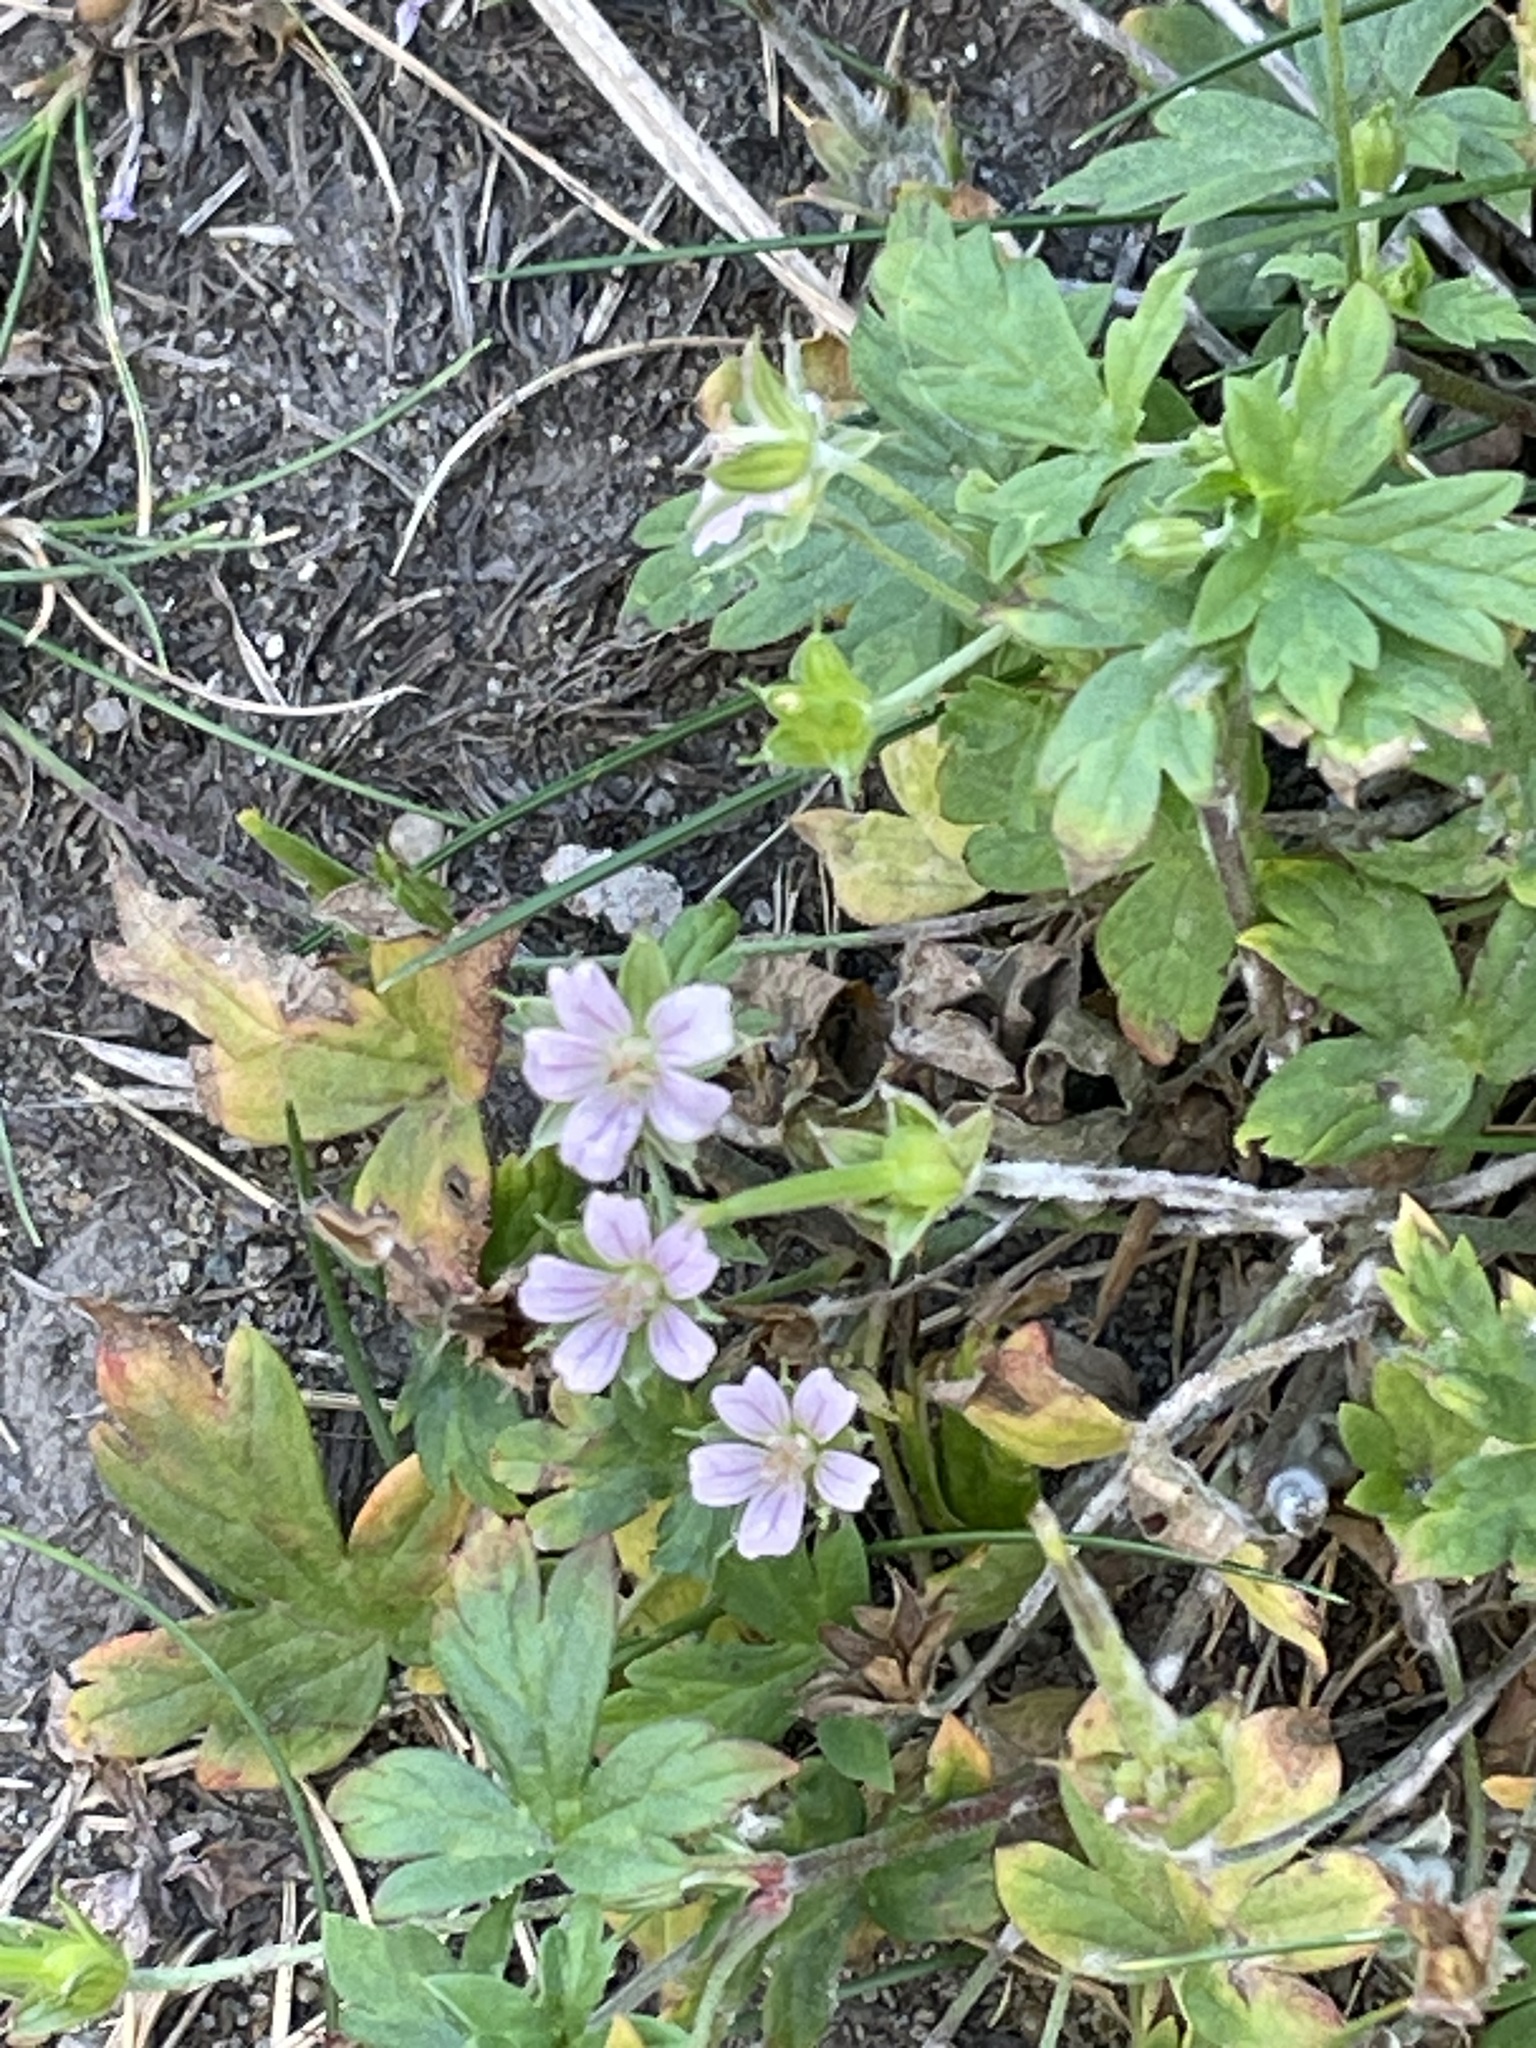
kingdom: Plantae
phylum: Tracheophyta
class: Magnoliopsida
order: Geraniales
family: Geraniaceae
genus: Geranium
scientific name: Geranium sibiricum
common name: Siberian crane's-bill
